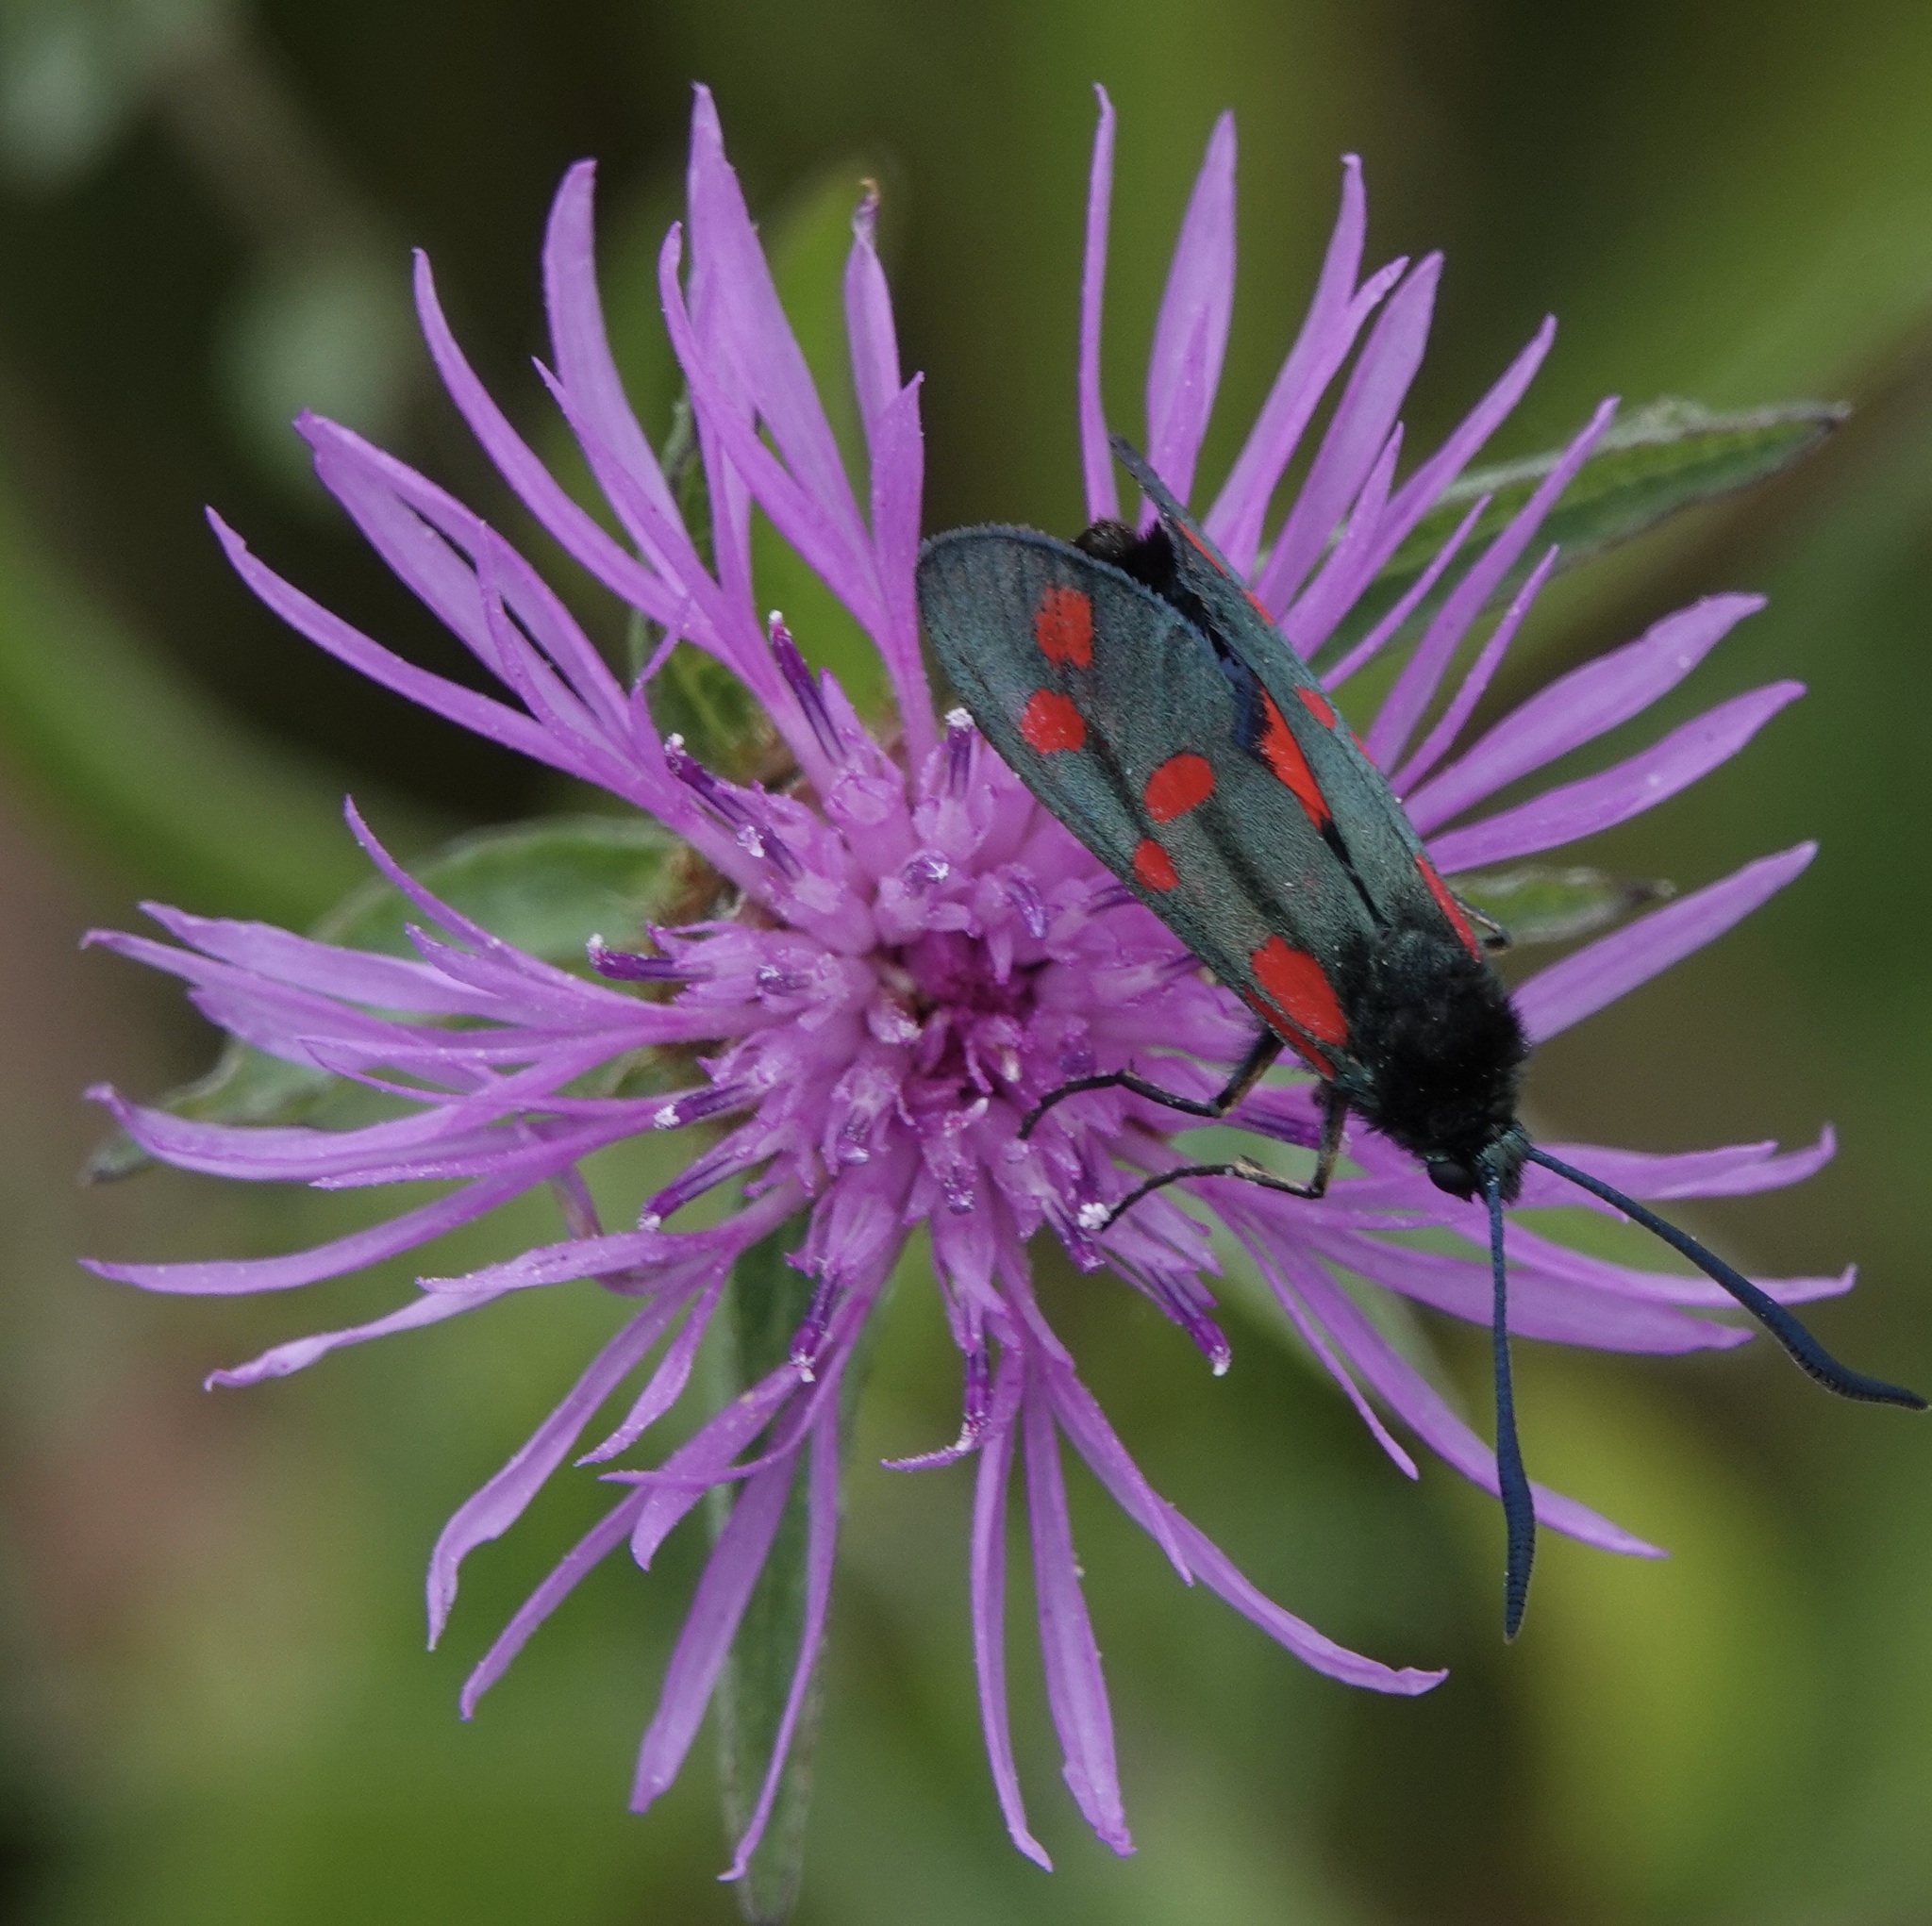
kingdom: Animalia
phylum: Arthropoda
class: Insecta
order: Lepidoptera
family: Zygaenidae
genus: Zygaena
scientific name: Zygaena filipendulae
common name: Six-spot burnet
